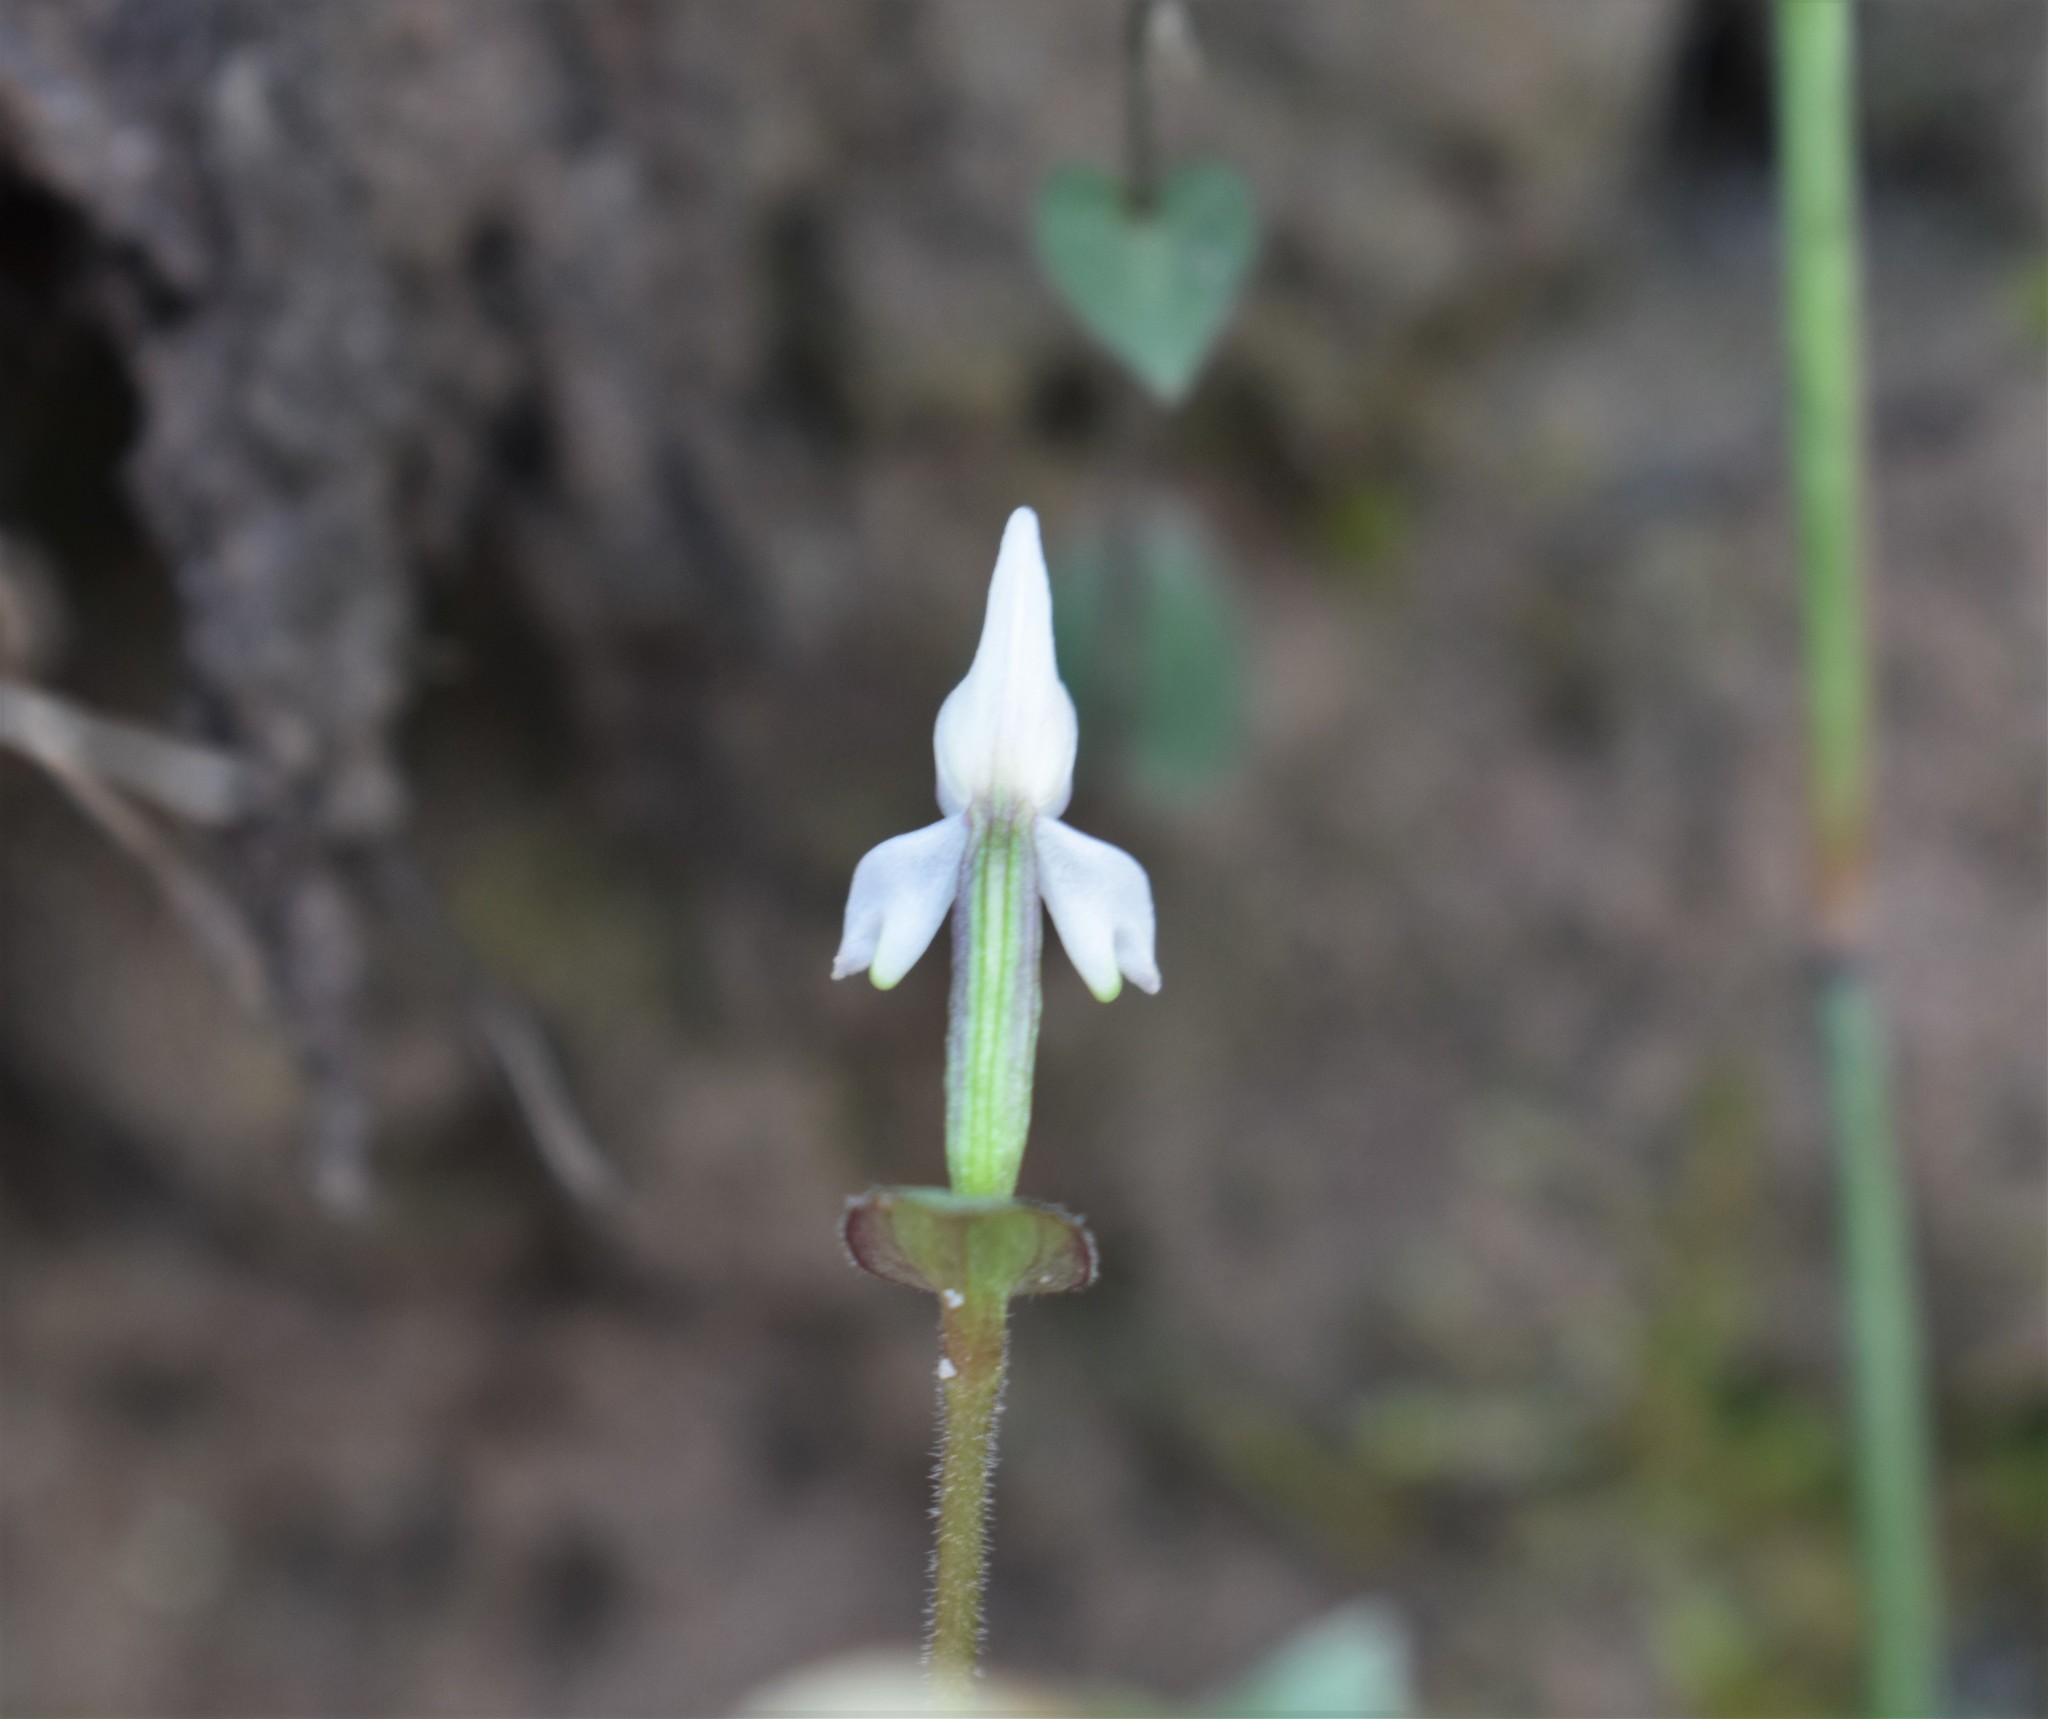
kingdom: Plantae
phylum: Tracheophyta
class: Liliopsida
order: Asparagales
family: Orchidaceae
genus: Disperis
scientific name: Disperis macowanii
